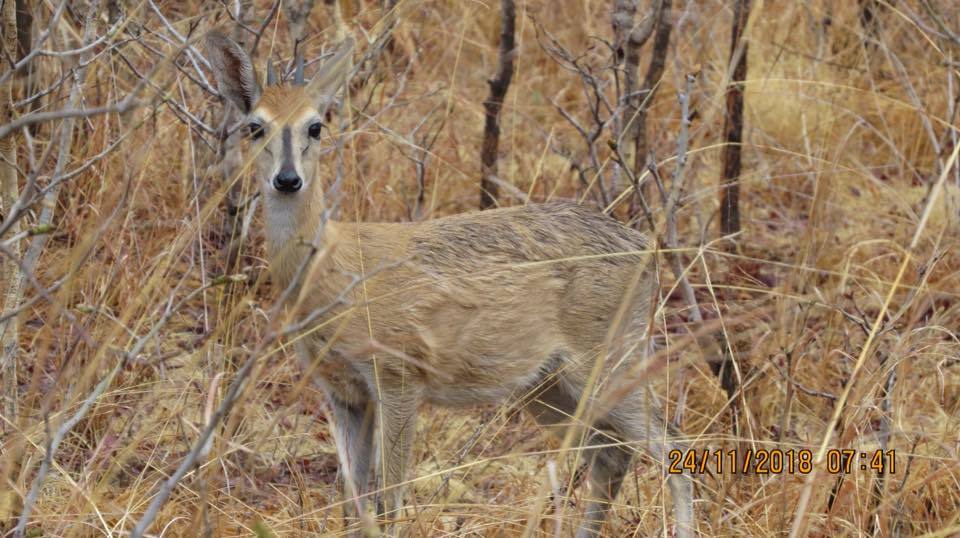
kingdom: Animalia
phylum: Chordata
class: Mammalia
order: Artiodactyla
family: Bovidae
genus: Sylvicapra
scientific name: Sylvicapra grimmia
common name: Bush duiker
